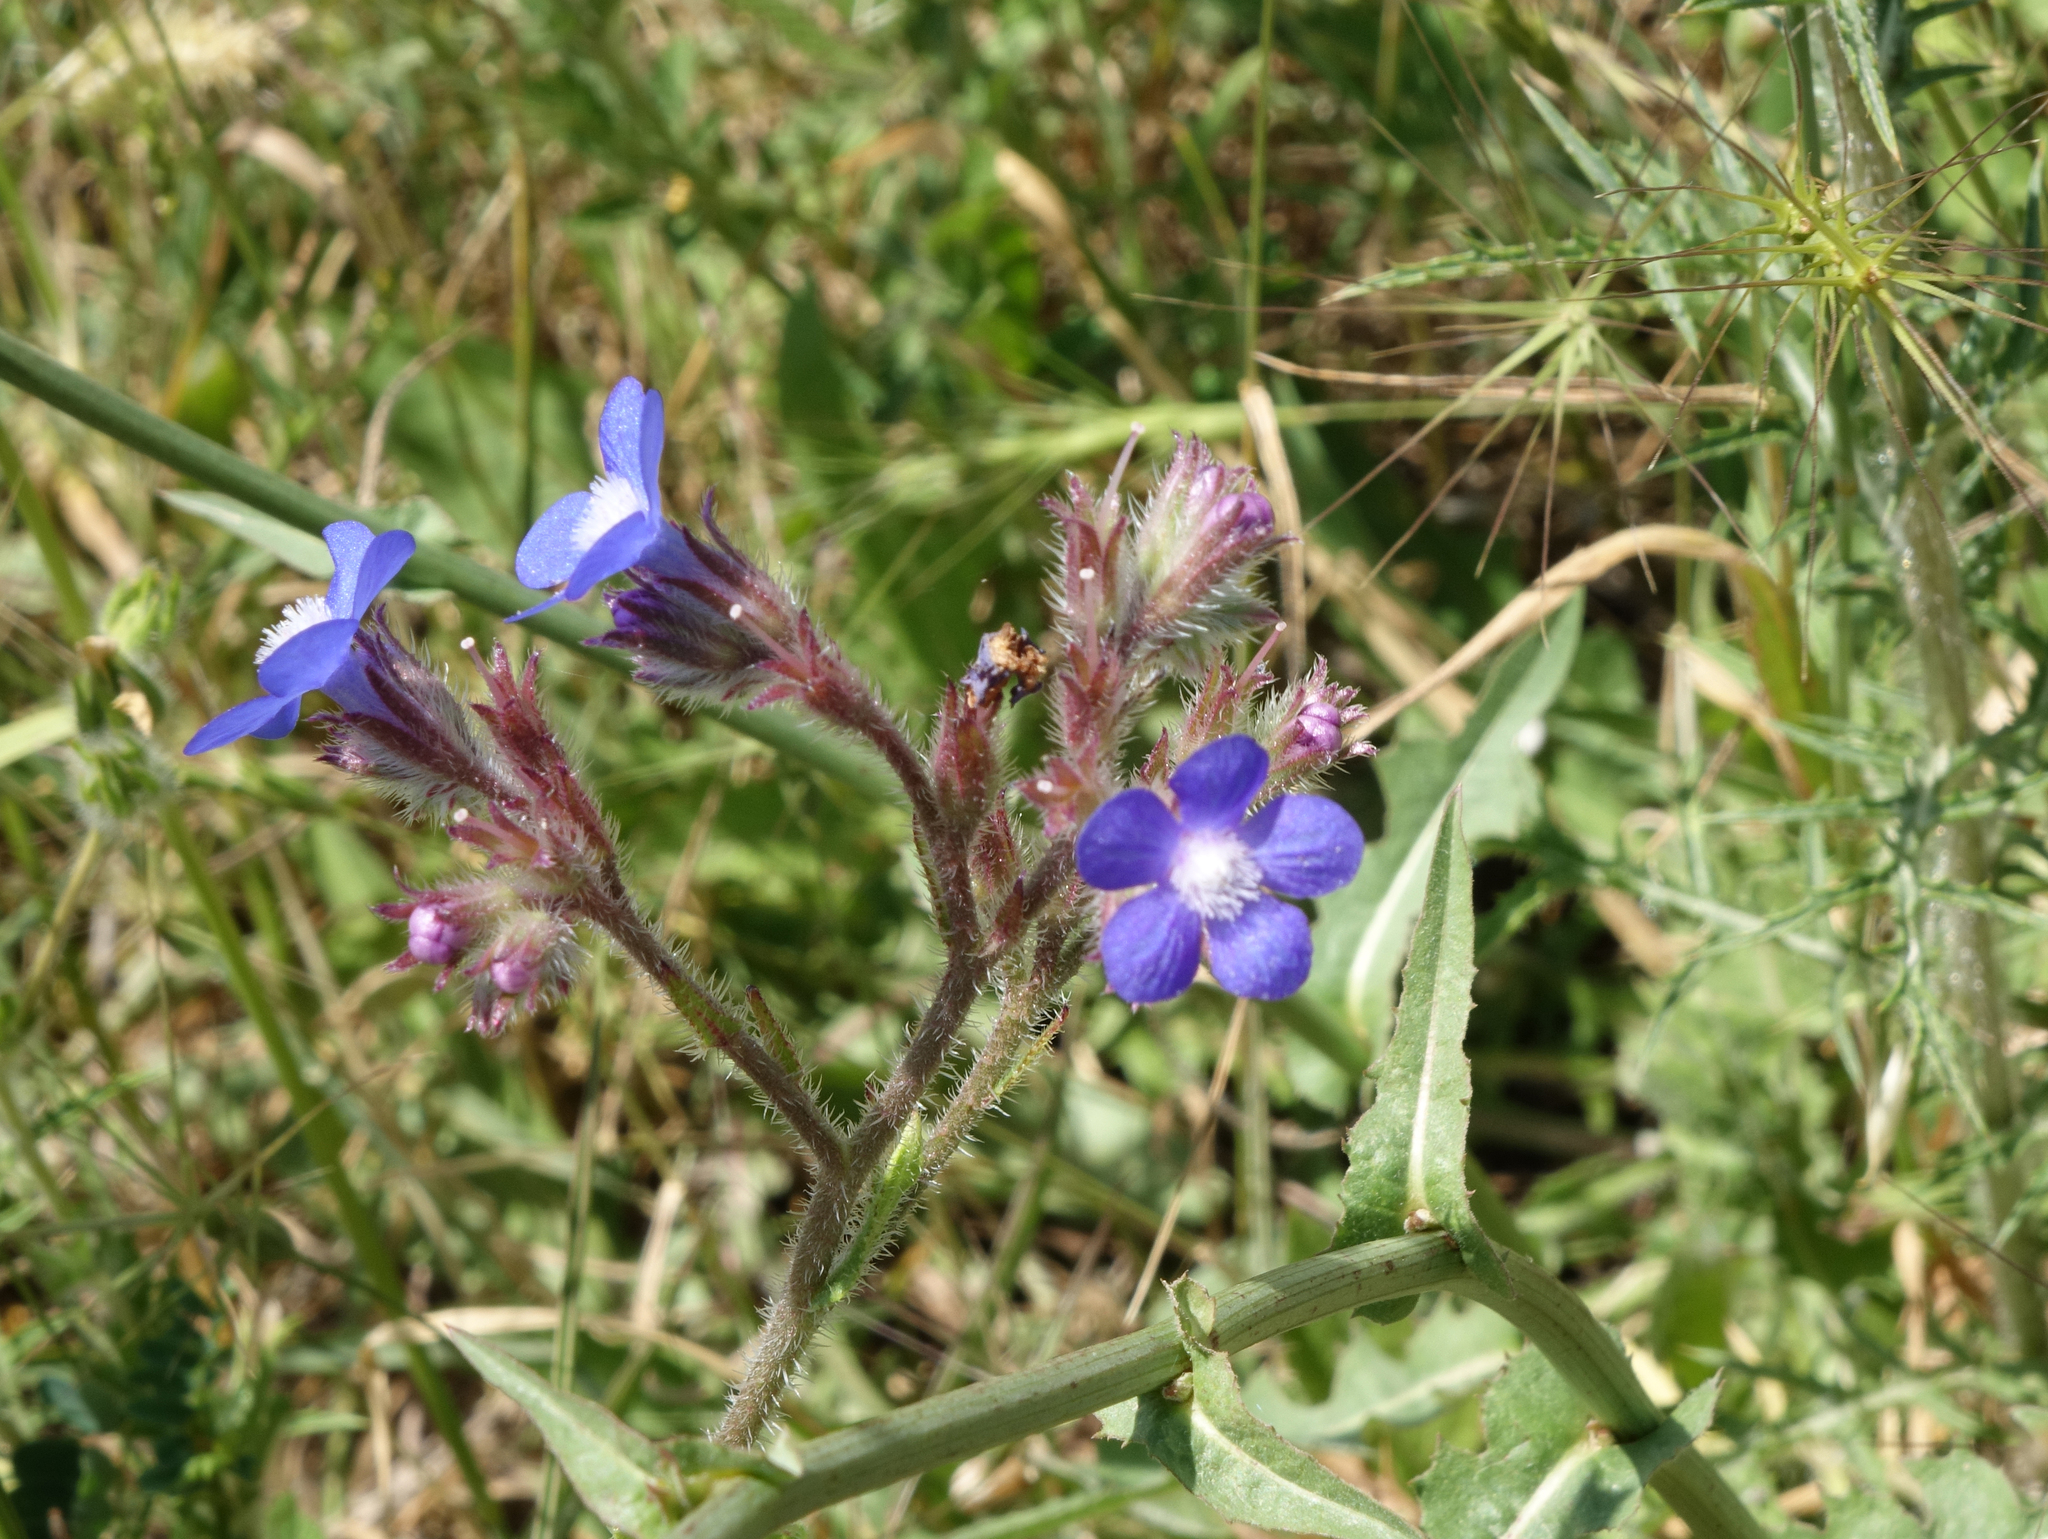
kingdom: Plantae
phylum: Tracheophyta
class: Magnoliopsida
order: Boraginales
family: Boraginaceae
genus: Anchusa
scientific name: Anchusa azurea
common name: Garden anchusa
